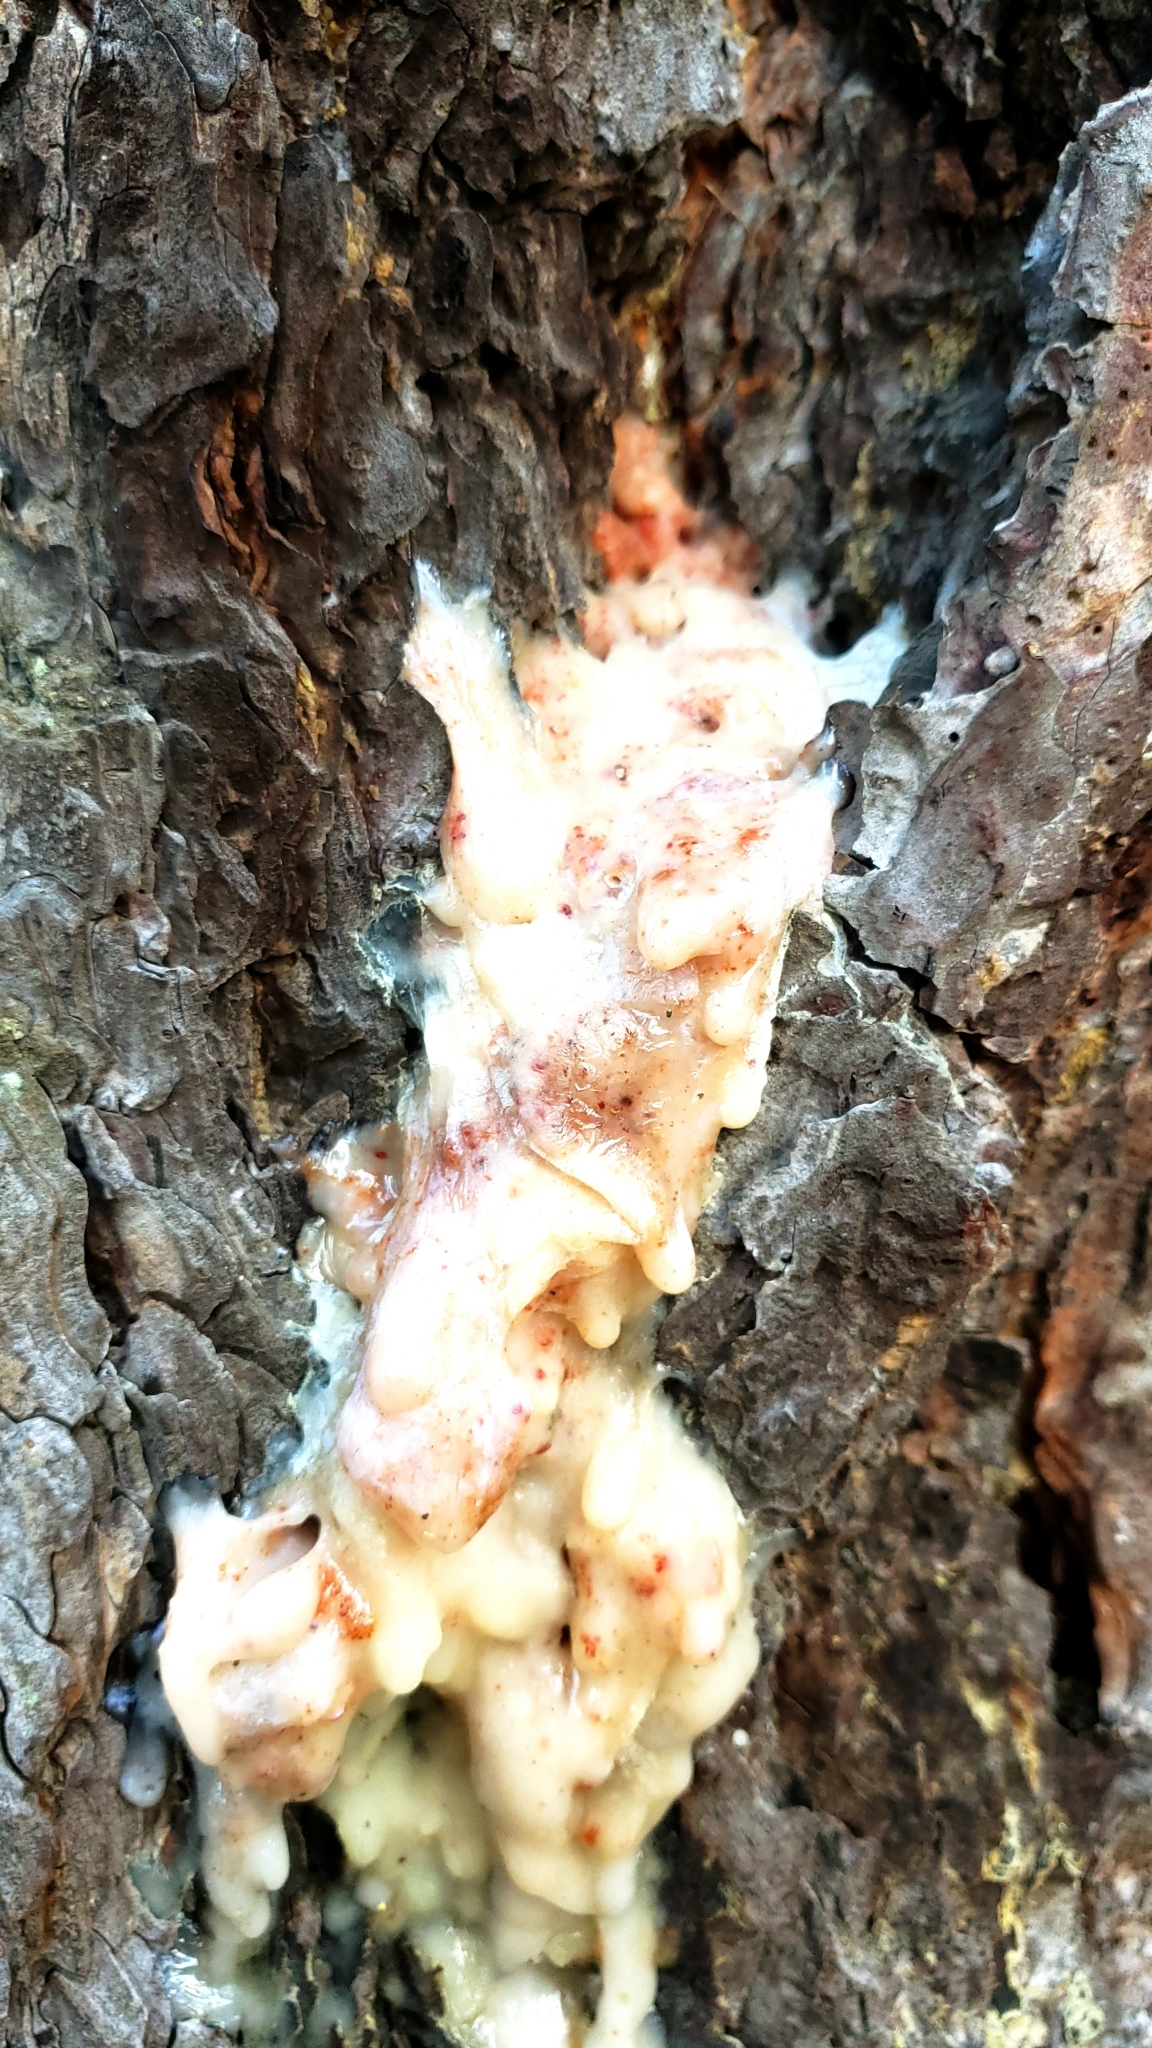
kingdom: Plantae
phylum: Tracheophyta
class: Pinopsida
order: Pinales
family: Pinaceae
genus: Pinus
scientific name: Pinus ponderosa
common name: Western yellow-pine
